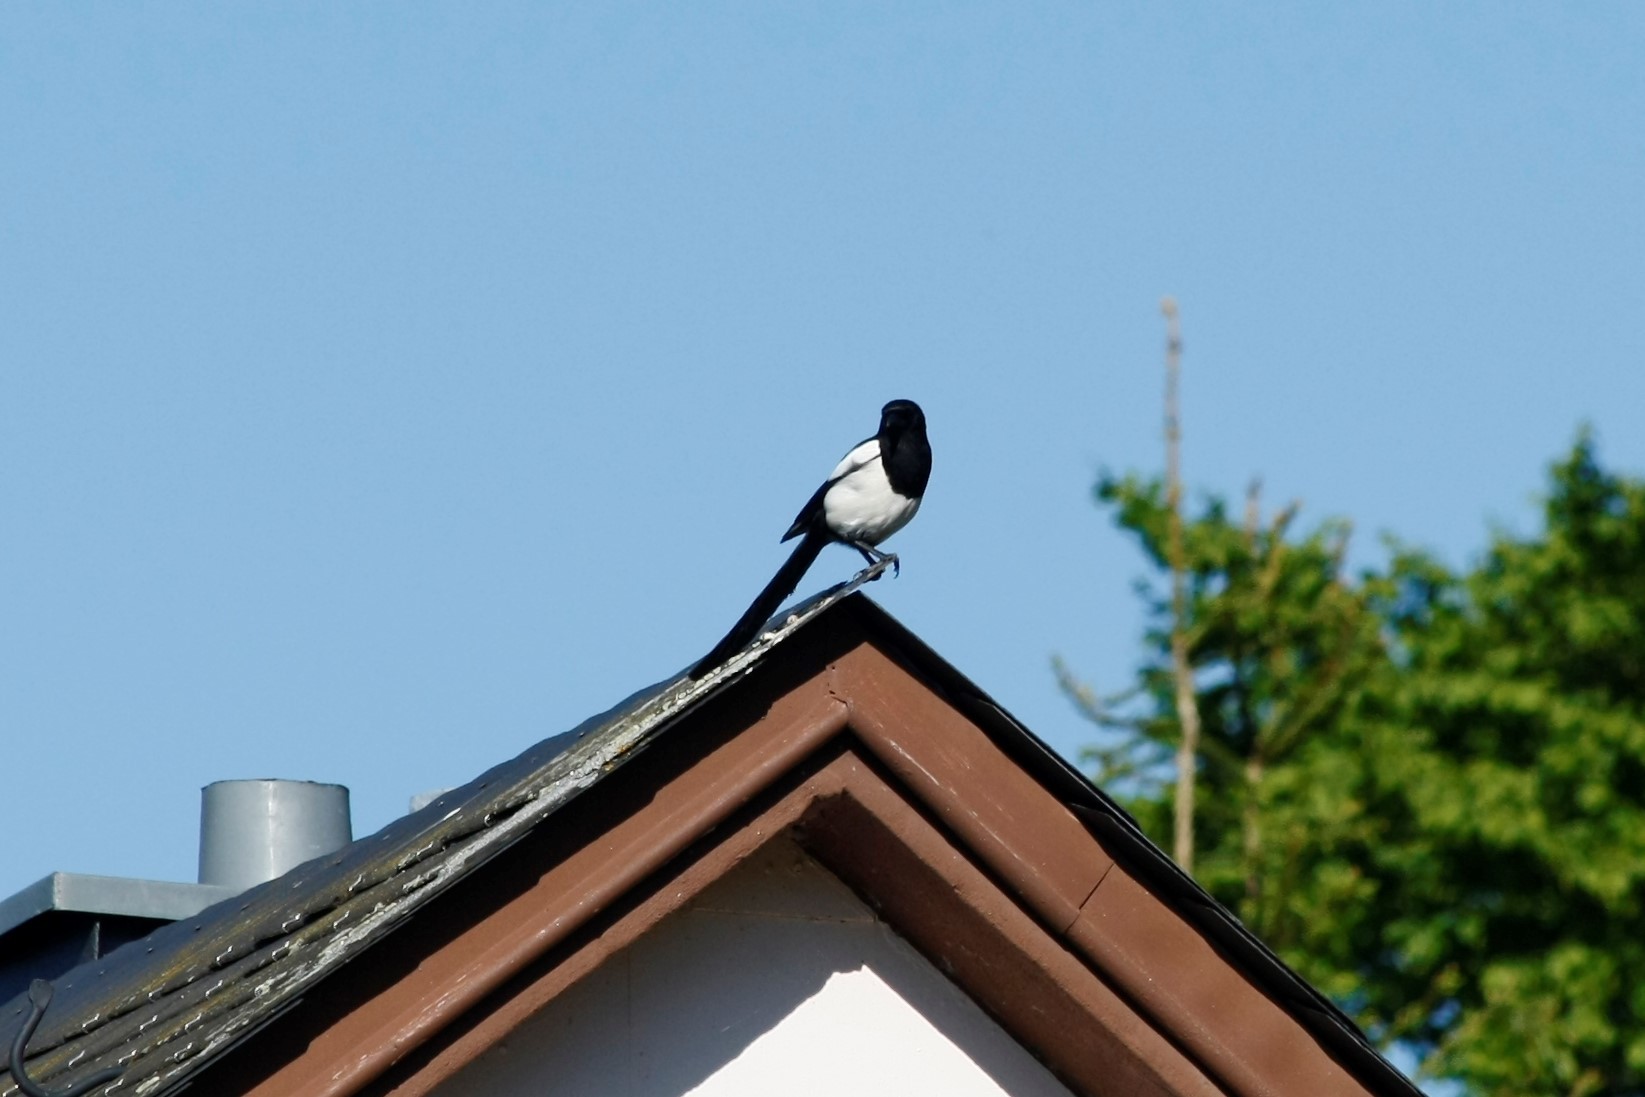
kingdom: Animalia
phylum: Chordata
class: Aves
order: Passeriformes
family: Corvidae
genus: Pica
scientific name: Pica pica
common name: Eurasian magpie
